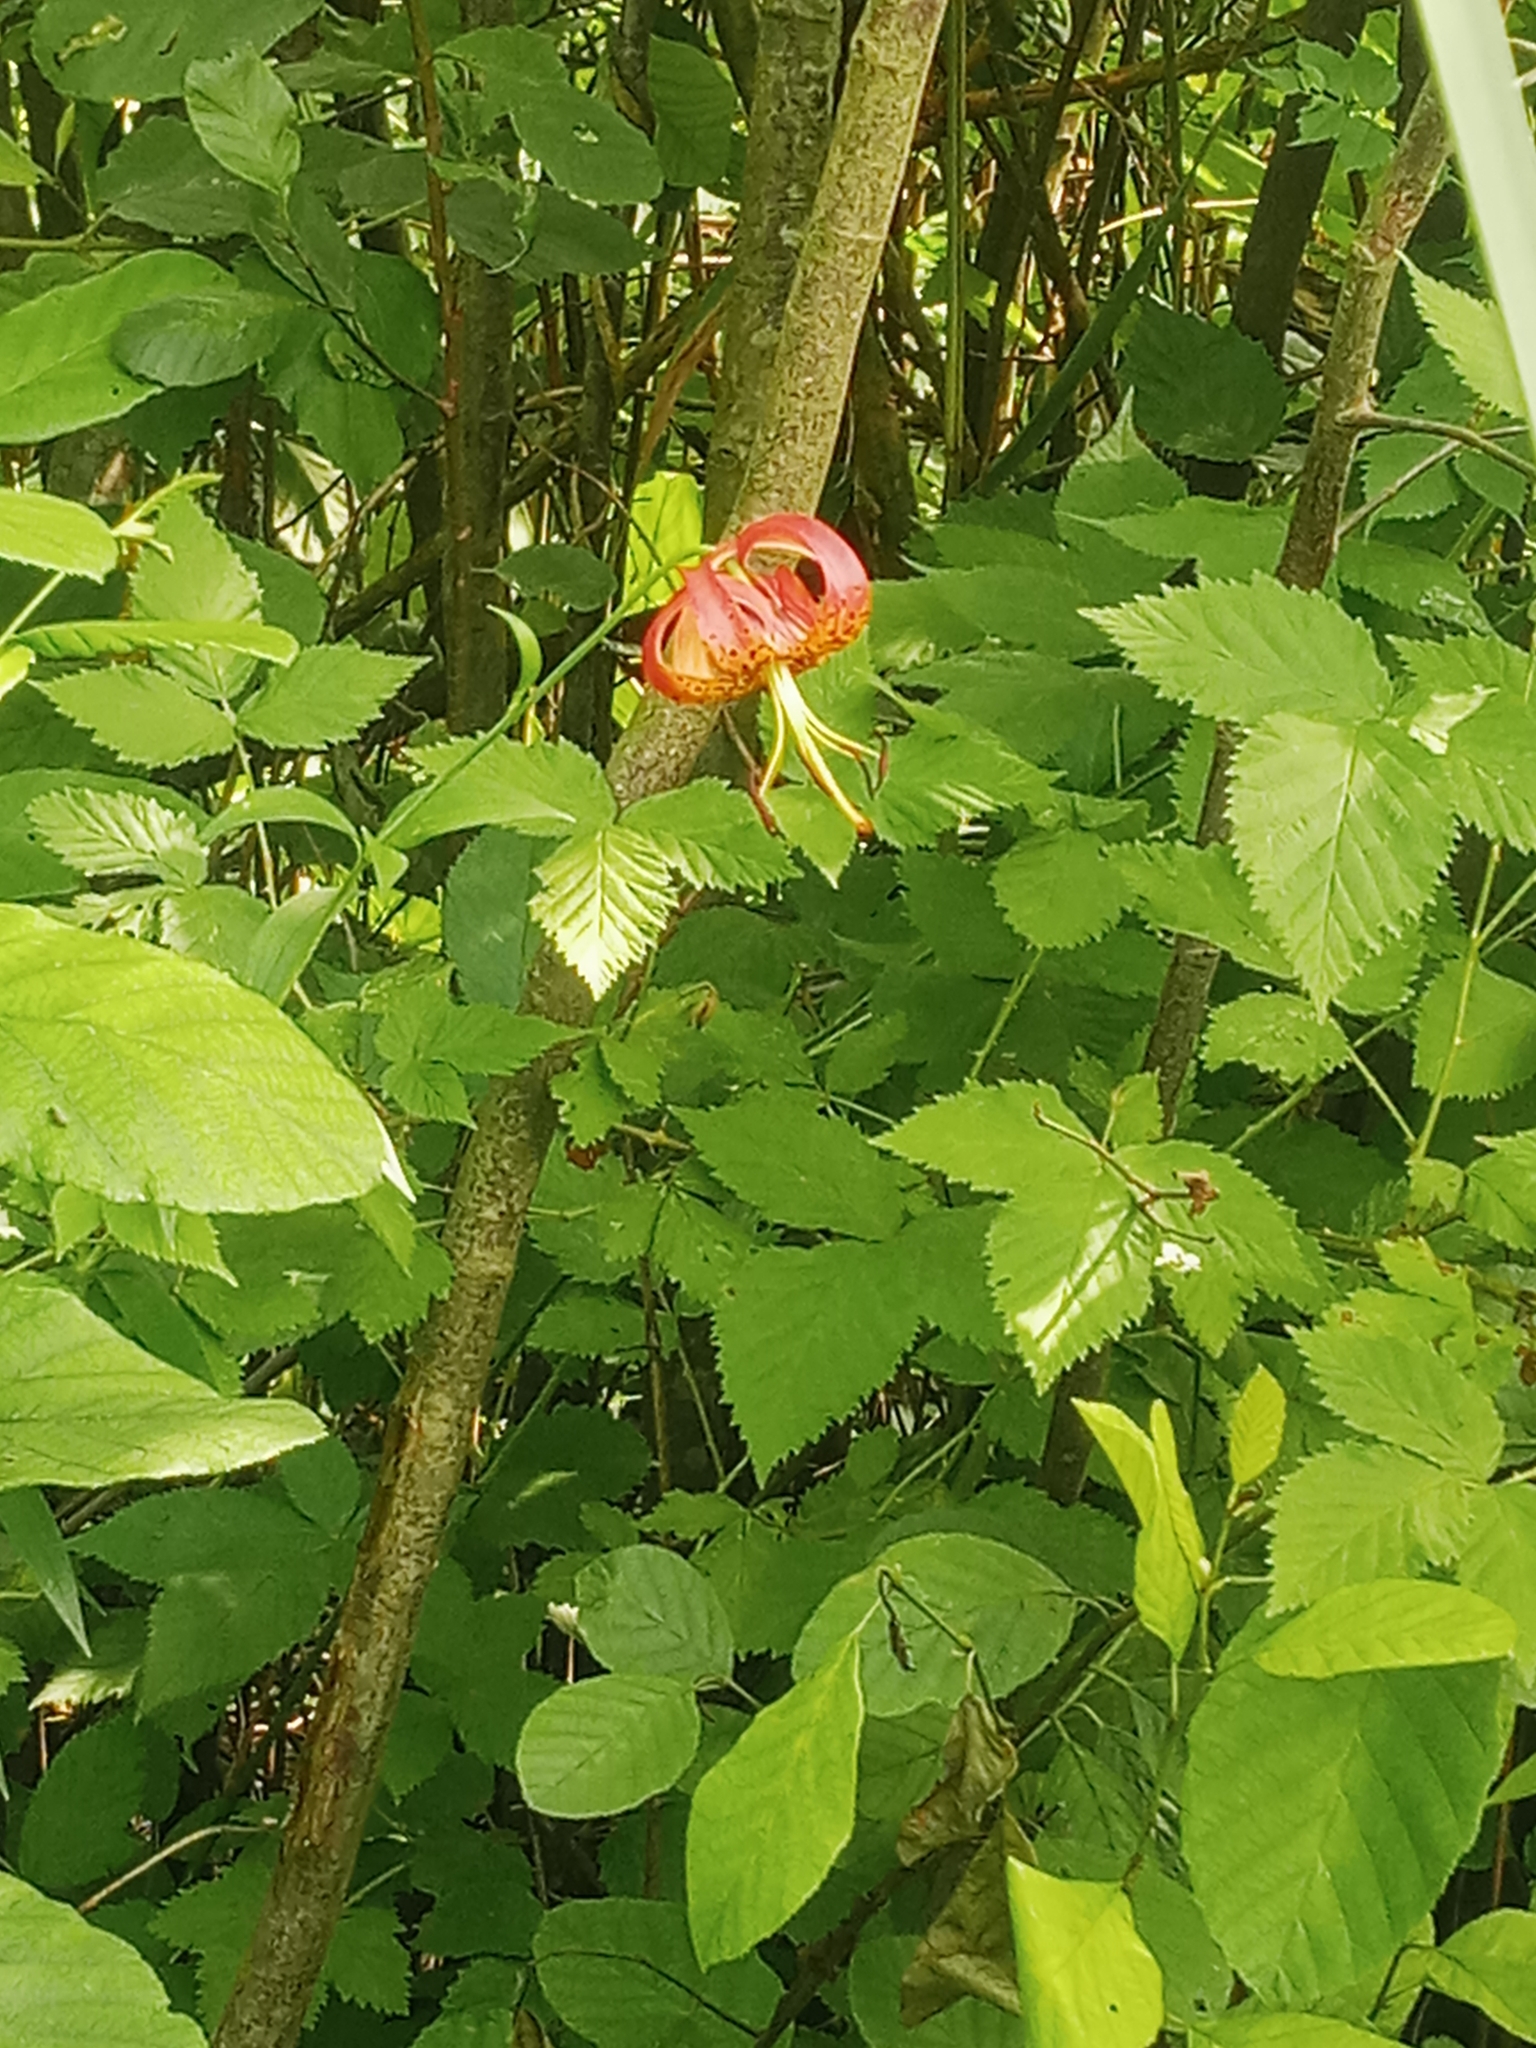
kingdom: Plantae
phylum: Tracheophyta
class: Liliopsida
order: Liliales
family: Liliaceae
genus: Lilium
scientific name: Lilium superbum
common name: American turk's-cap lily
